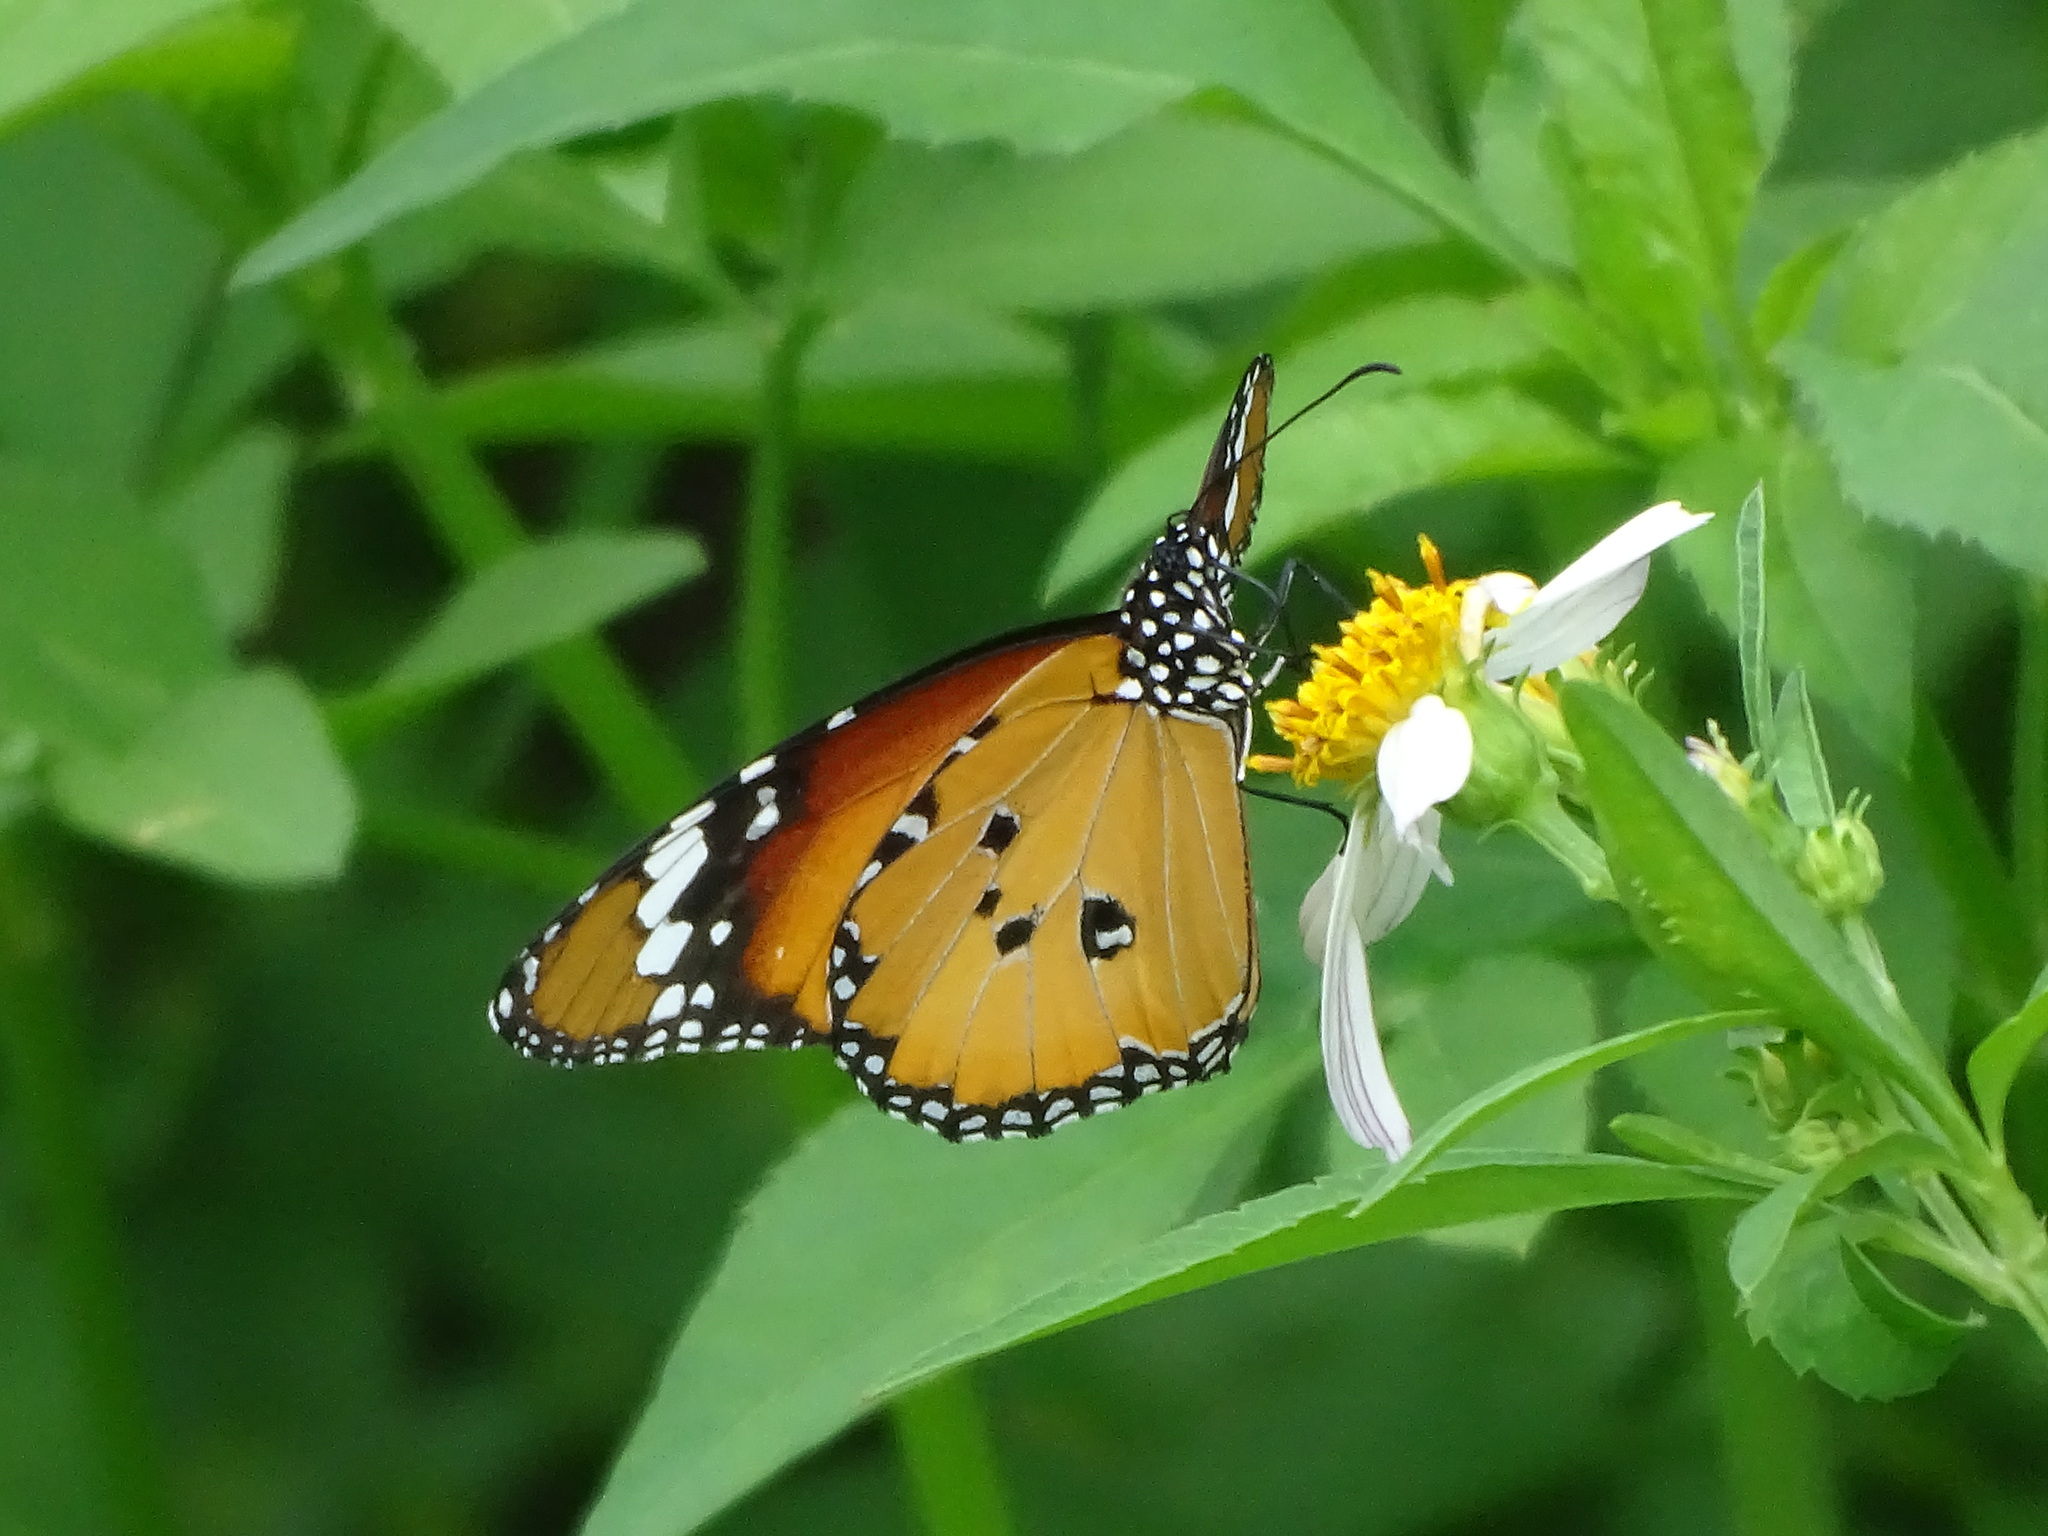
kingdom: Animalia
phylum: Arthropoda
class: Insecta
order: Lepidoptera
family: Nymphalidae
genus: Danaus
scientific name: Danaus chrysippus
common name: Plain tiger
